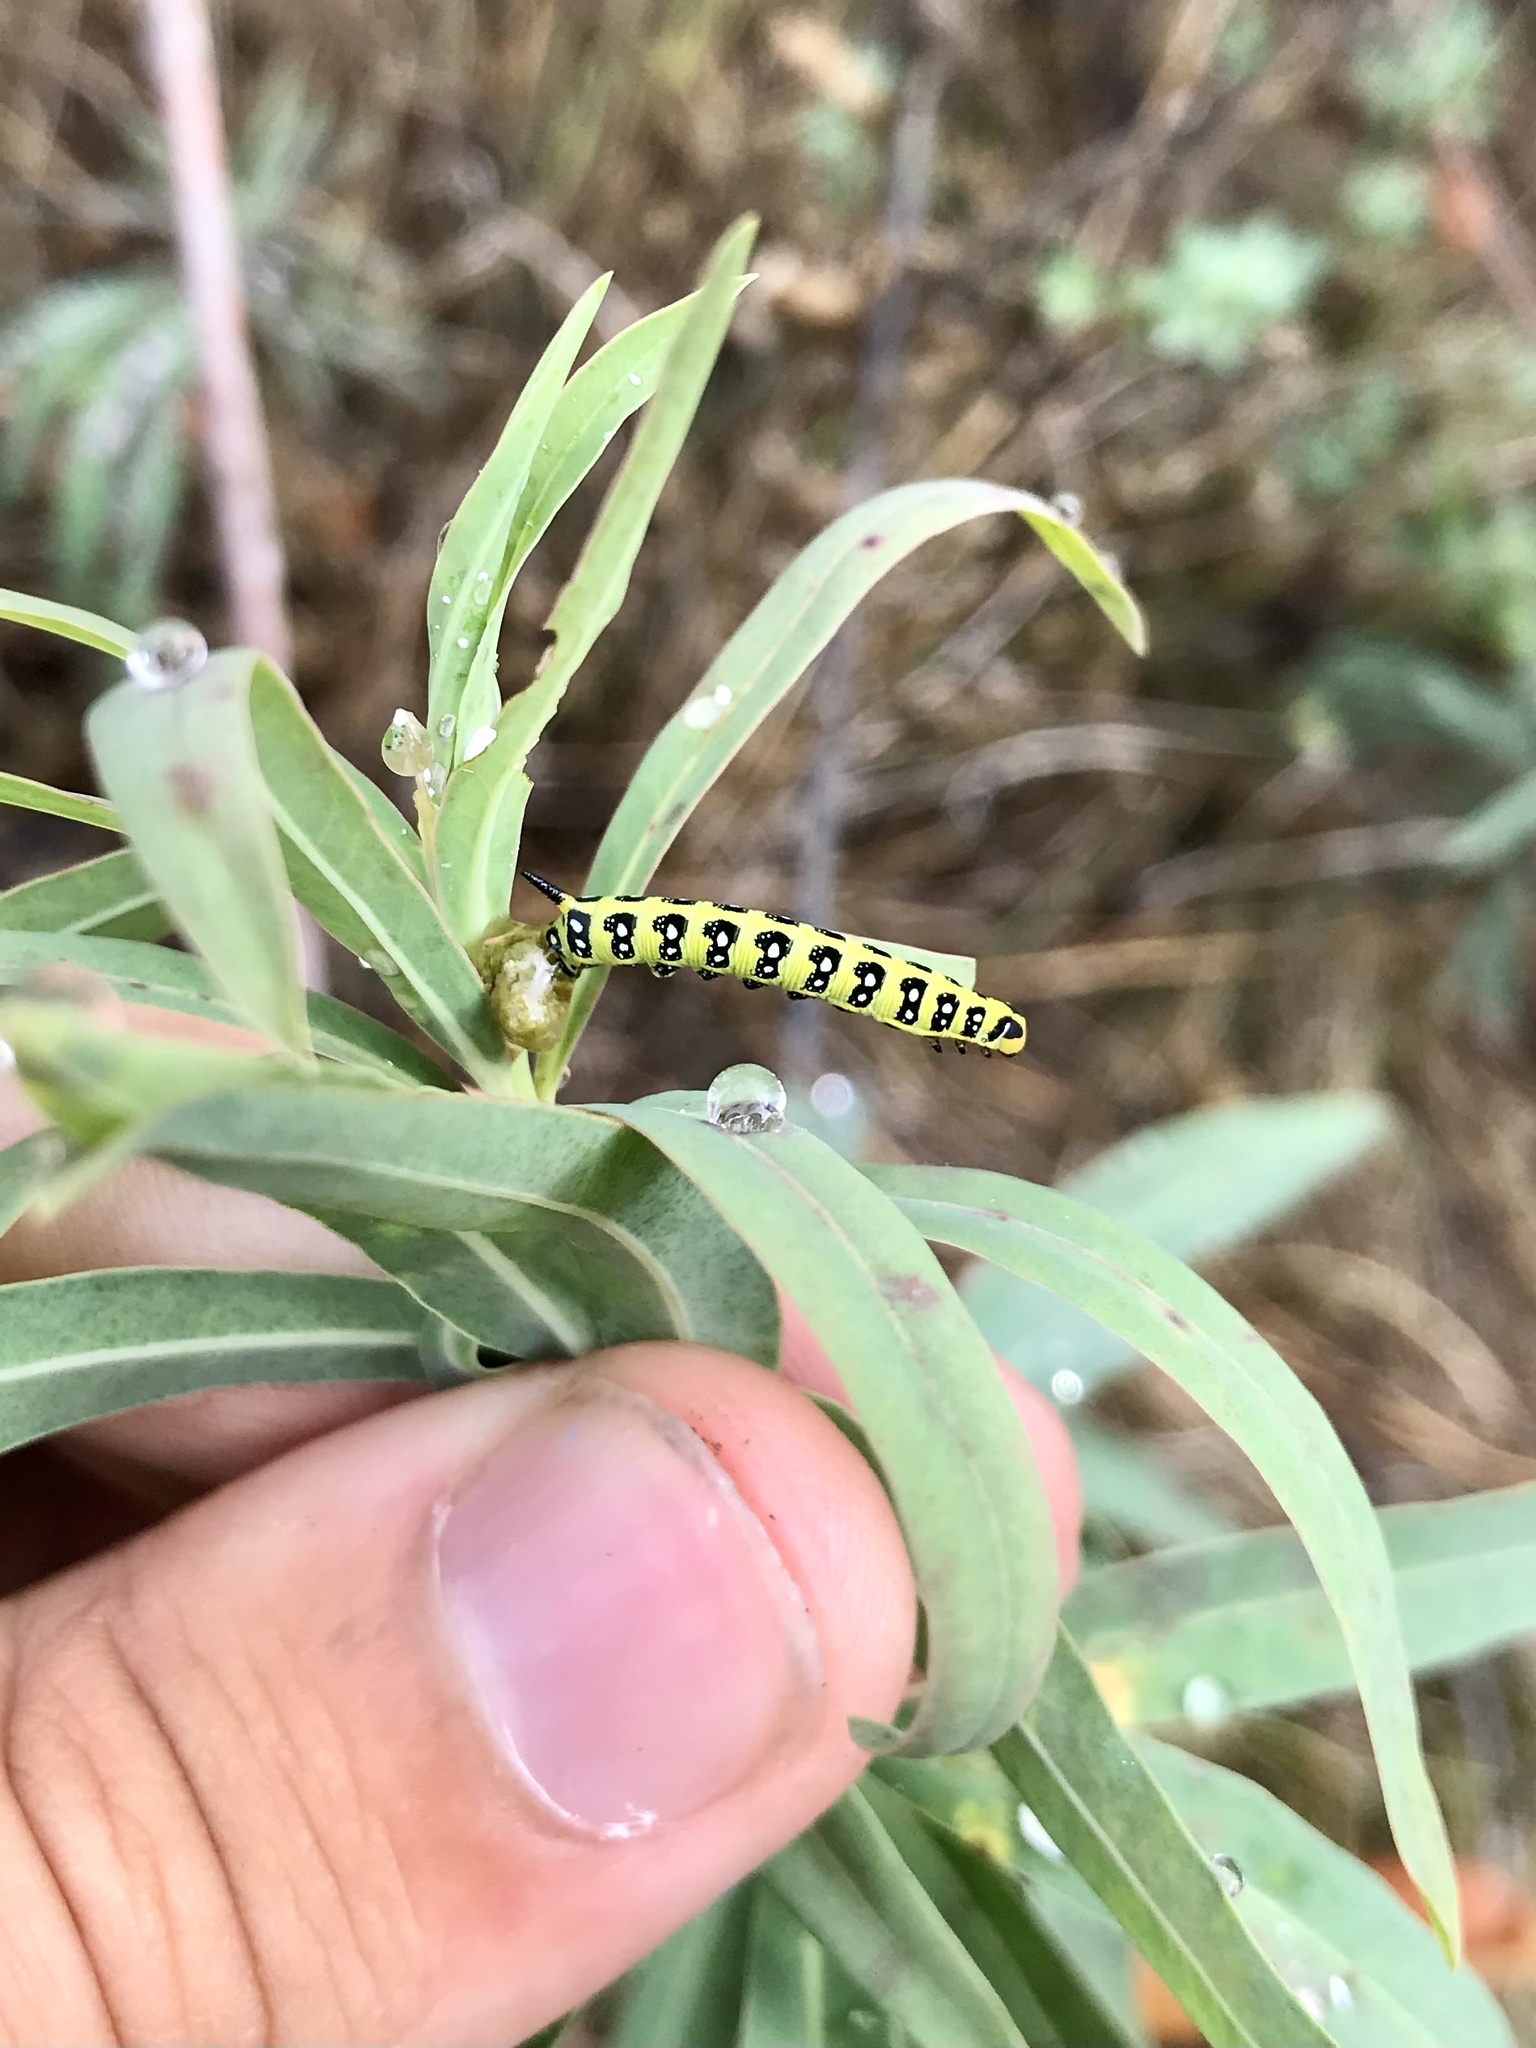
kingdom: Animalia
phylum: Arthropoda
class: Insecta
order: Lepidoptera
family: Sphingidae
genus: Hyles
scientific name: Hyles euphorbiae
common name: Spurge hawk-moth
